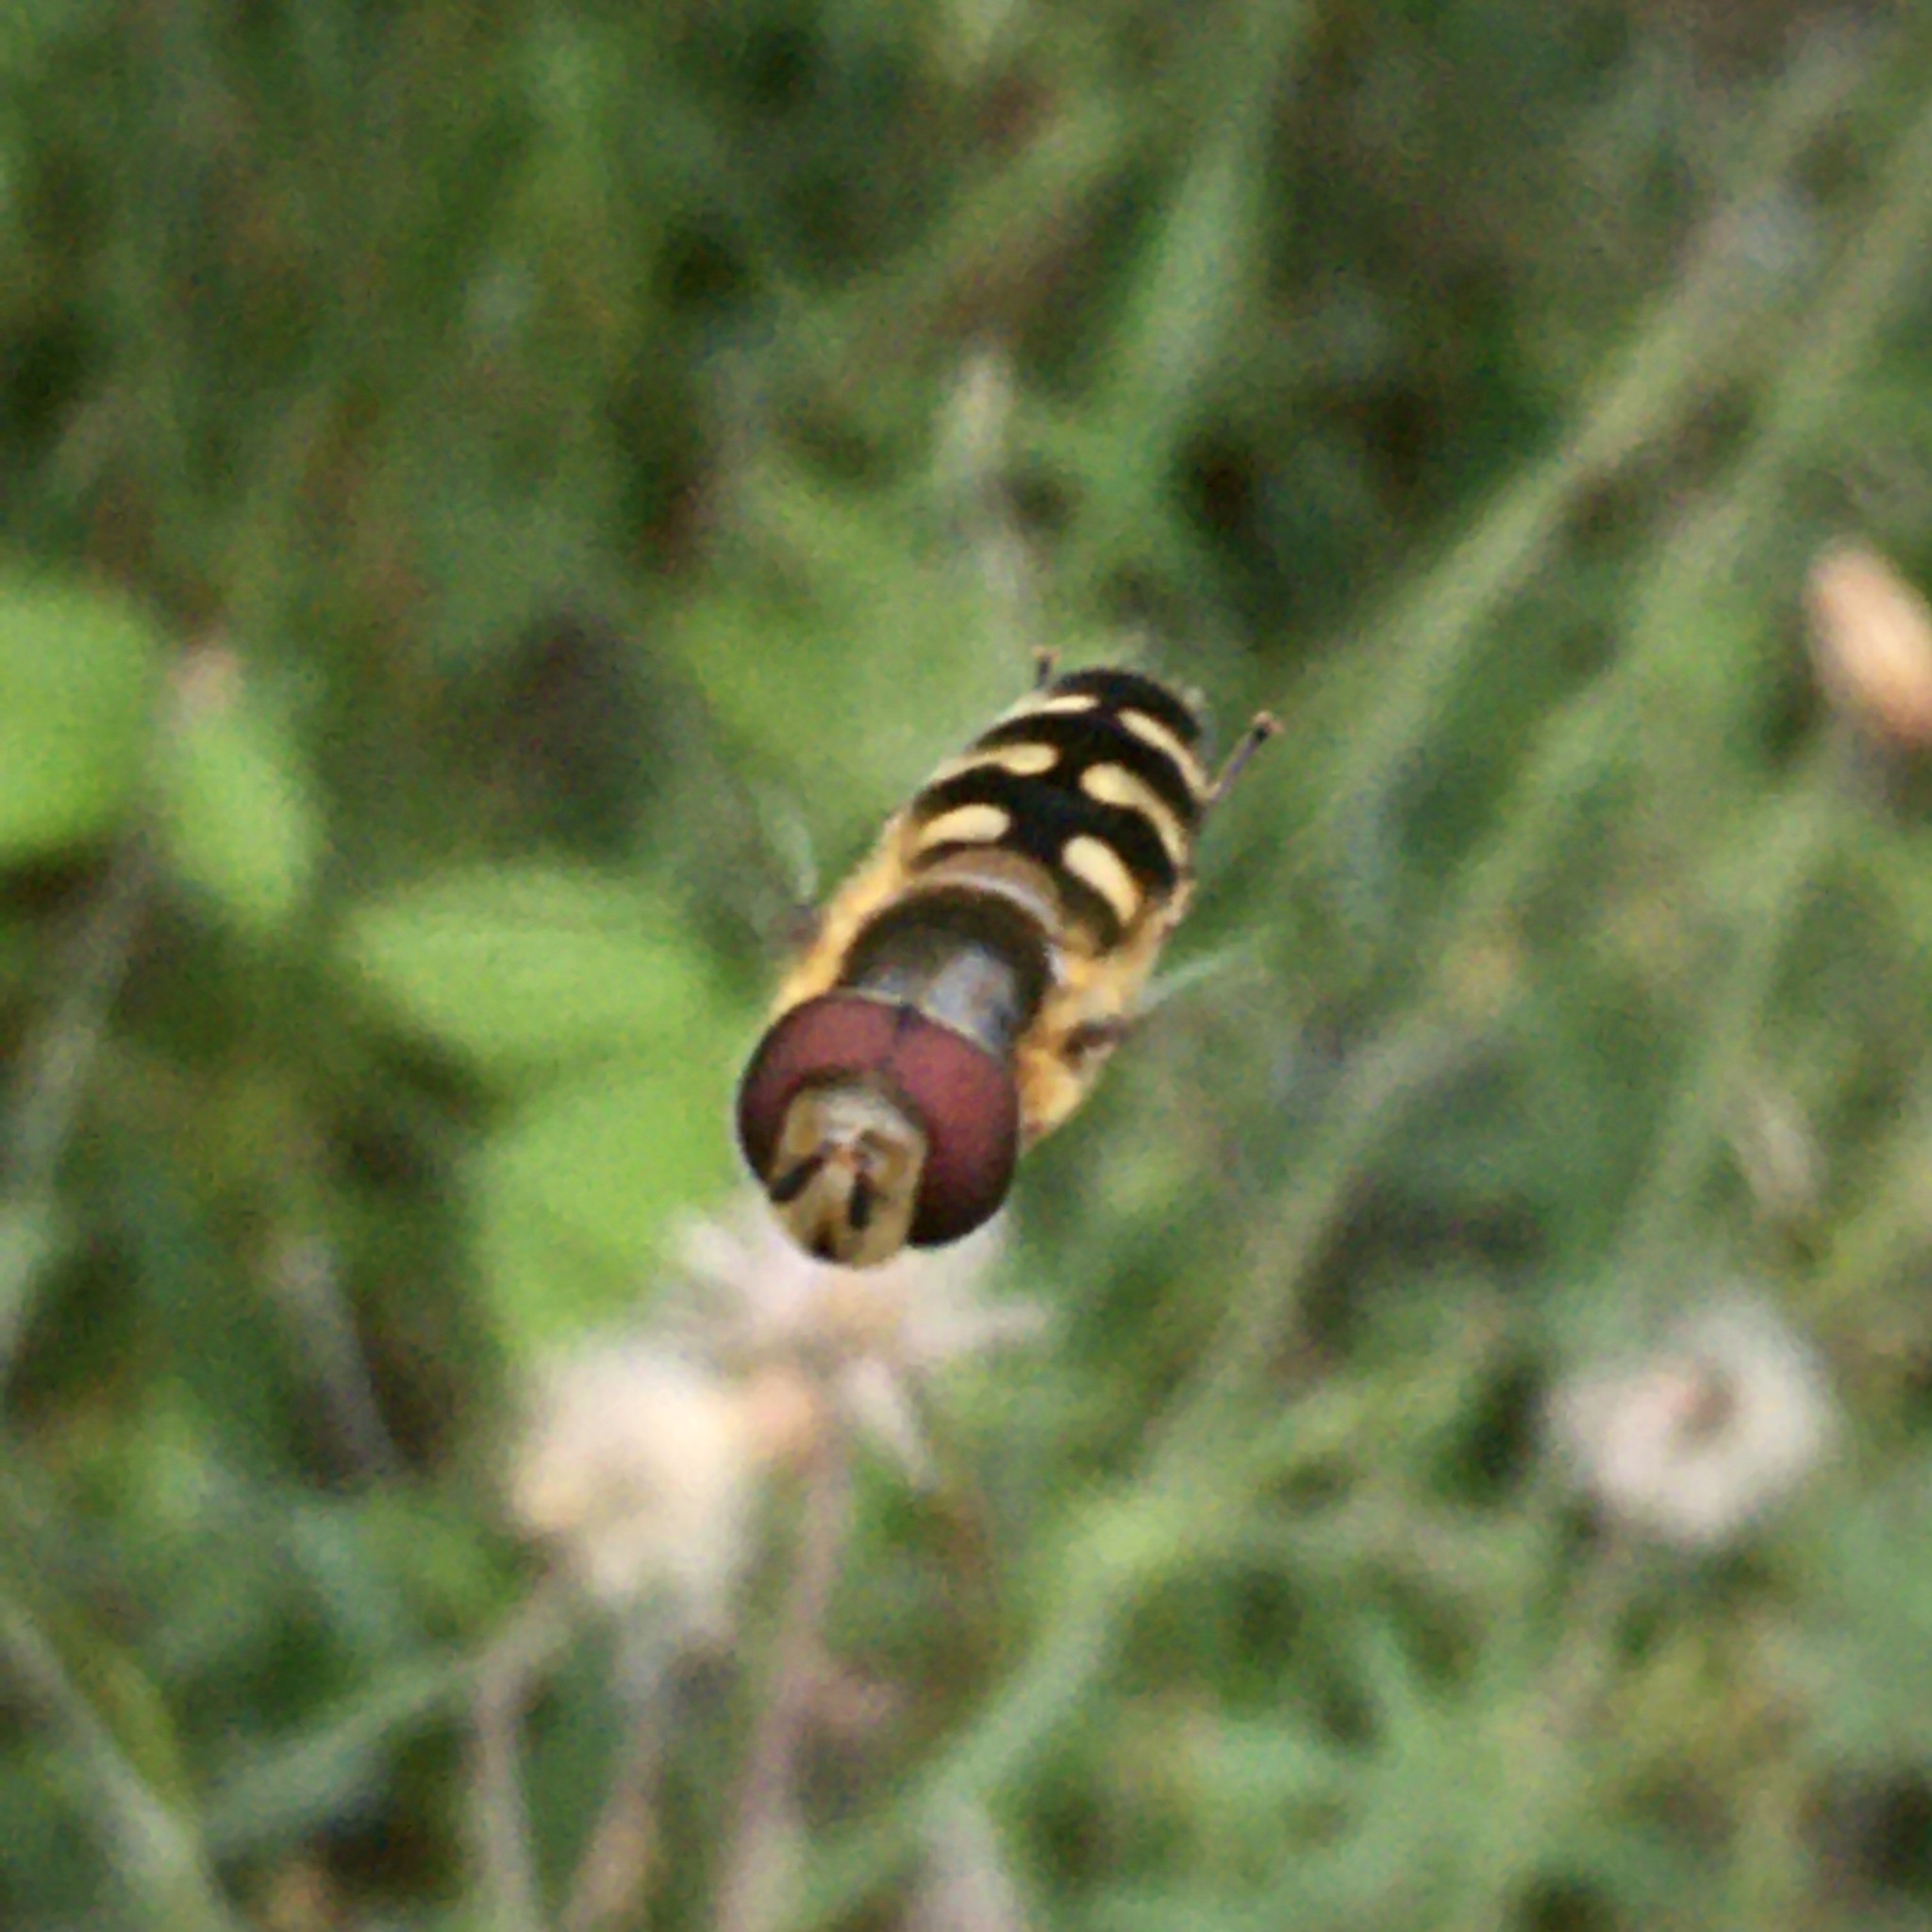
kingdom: Animalia
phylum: Arthropoda
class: Insecta
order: Diptera
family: Syrphidae
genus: Scaeva
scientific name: Scaeva selenitica
